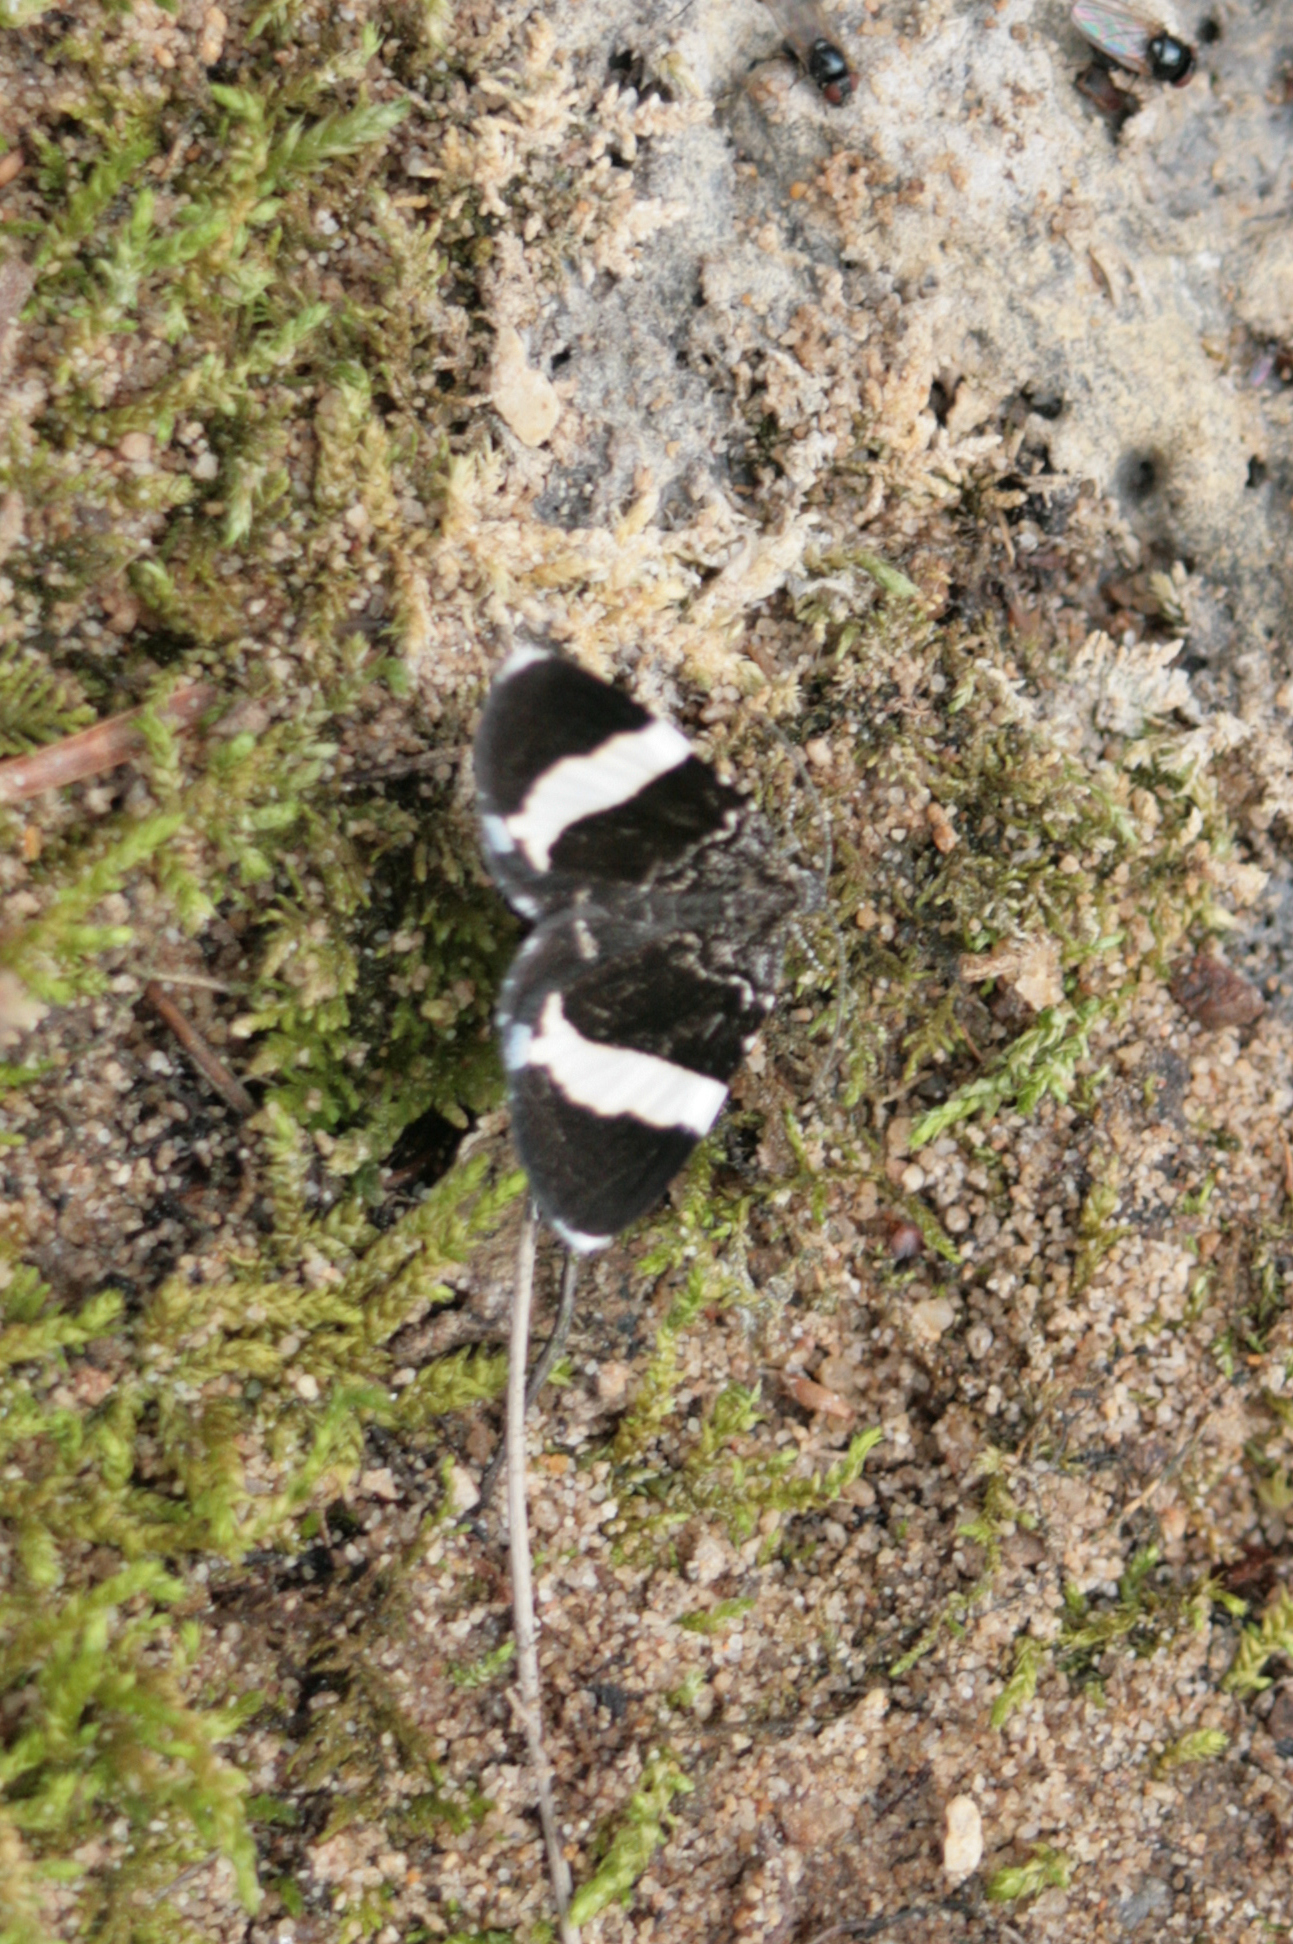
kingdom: Animalia
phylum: Arthropoda
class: Insecta
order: Lepidoptera
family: Geometridae
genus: Trichodezia
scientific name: Trichodezia albovittata
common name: White striped black
